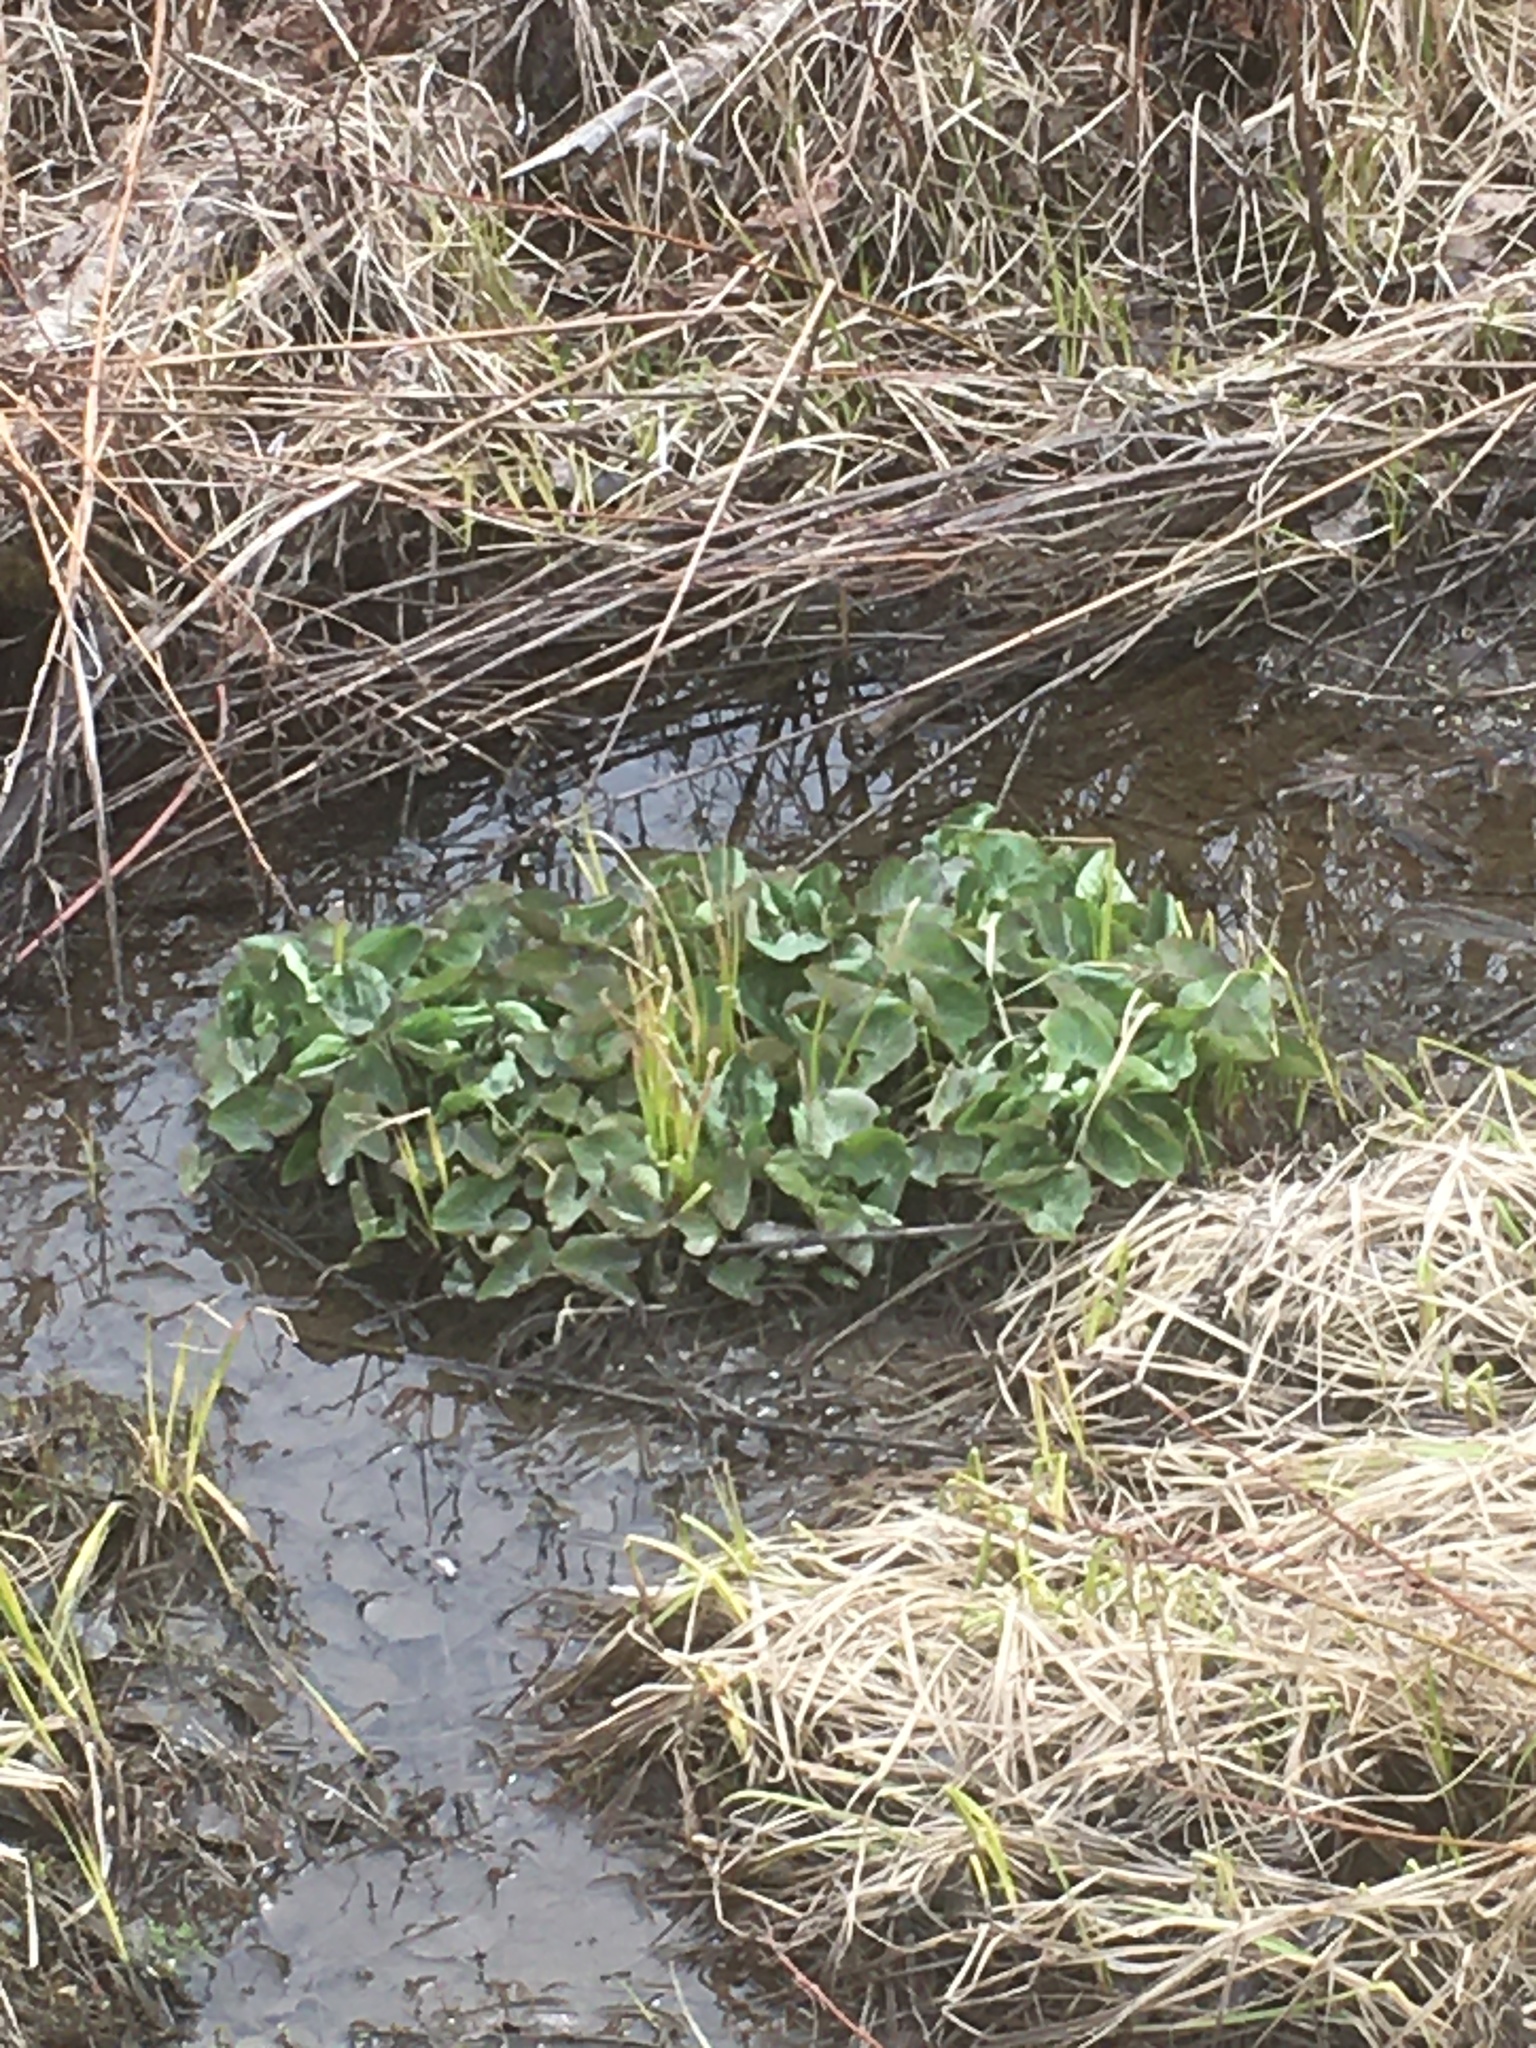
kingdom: Plantae
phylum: Tracheophyta
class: Magnoliopsida
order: Ranunculales
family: Ranunculaceae
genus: Caltha
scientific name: Caltha palustris
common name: Marsh marigold
